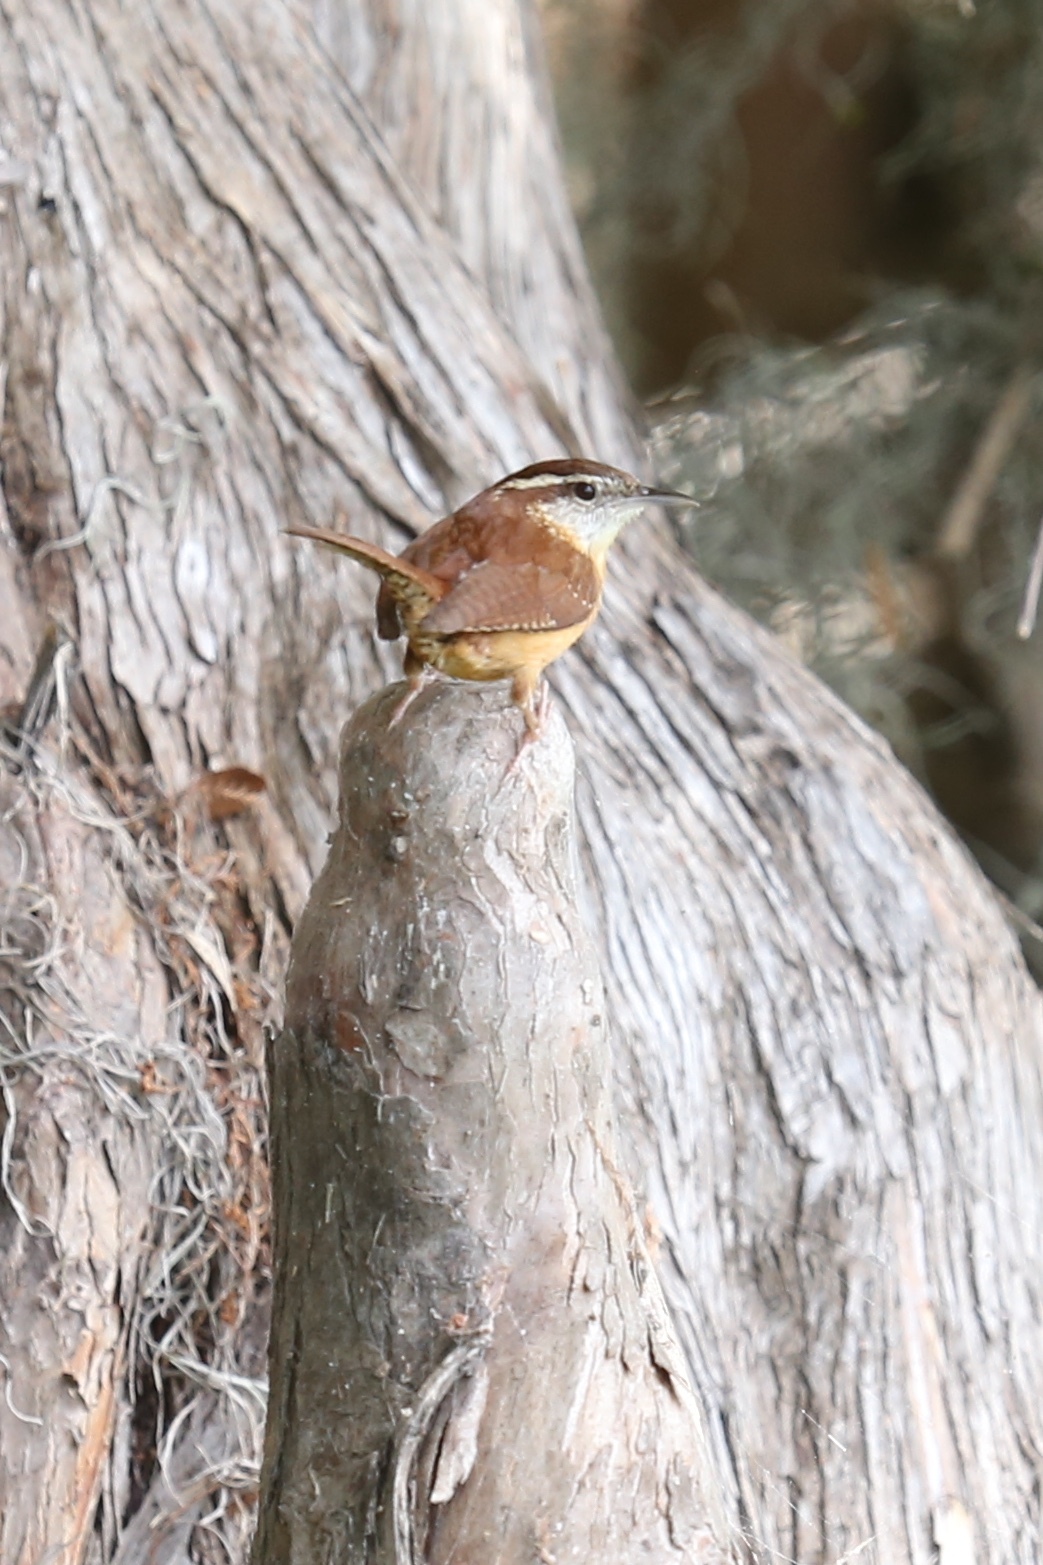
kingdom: Animalia
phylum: Chordata
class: Aves
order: Passeriformes
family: Troglodytidae
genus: Thryothorus
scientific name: Thryothorus ludovicianus
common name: Carolina wren
